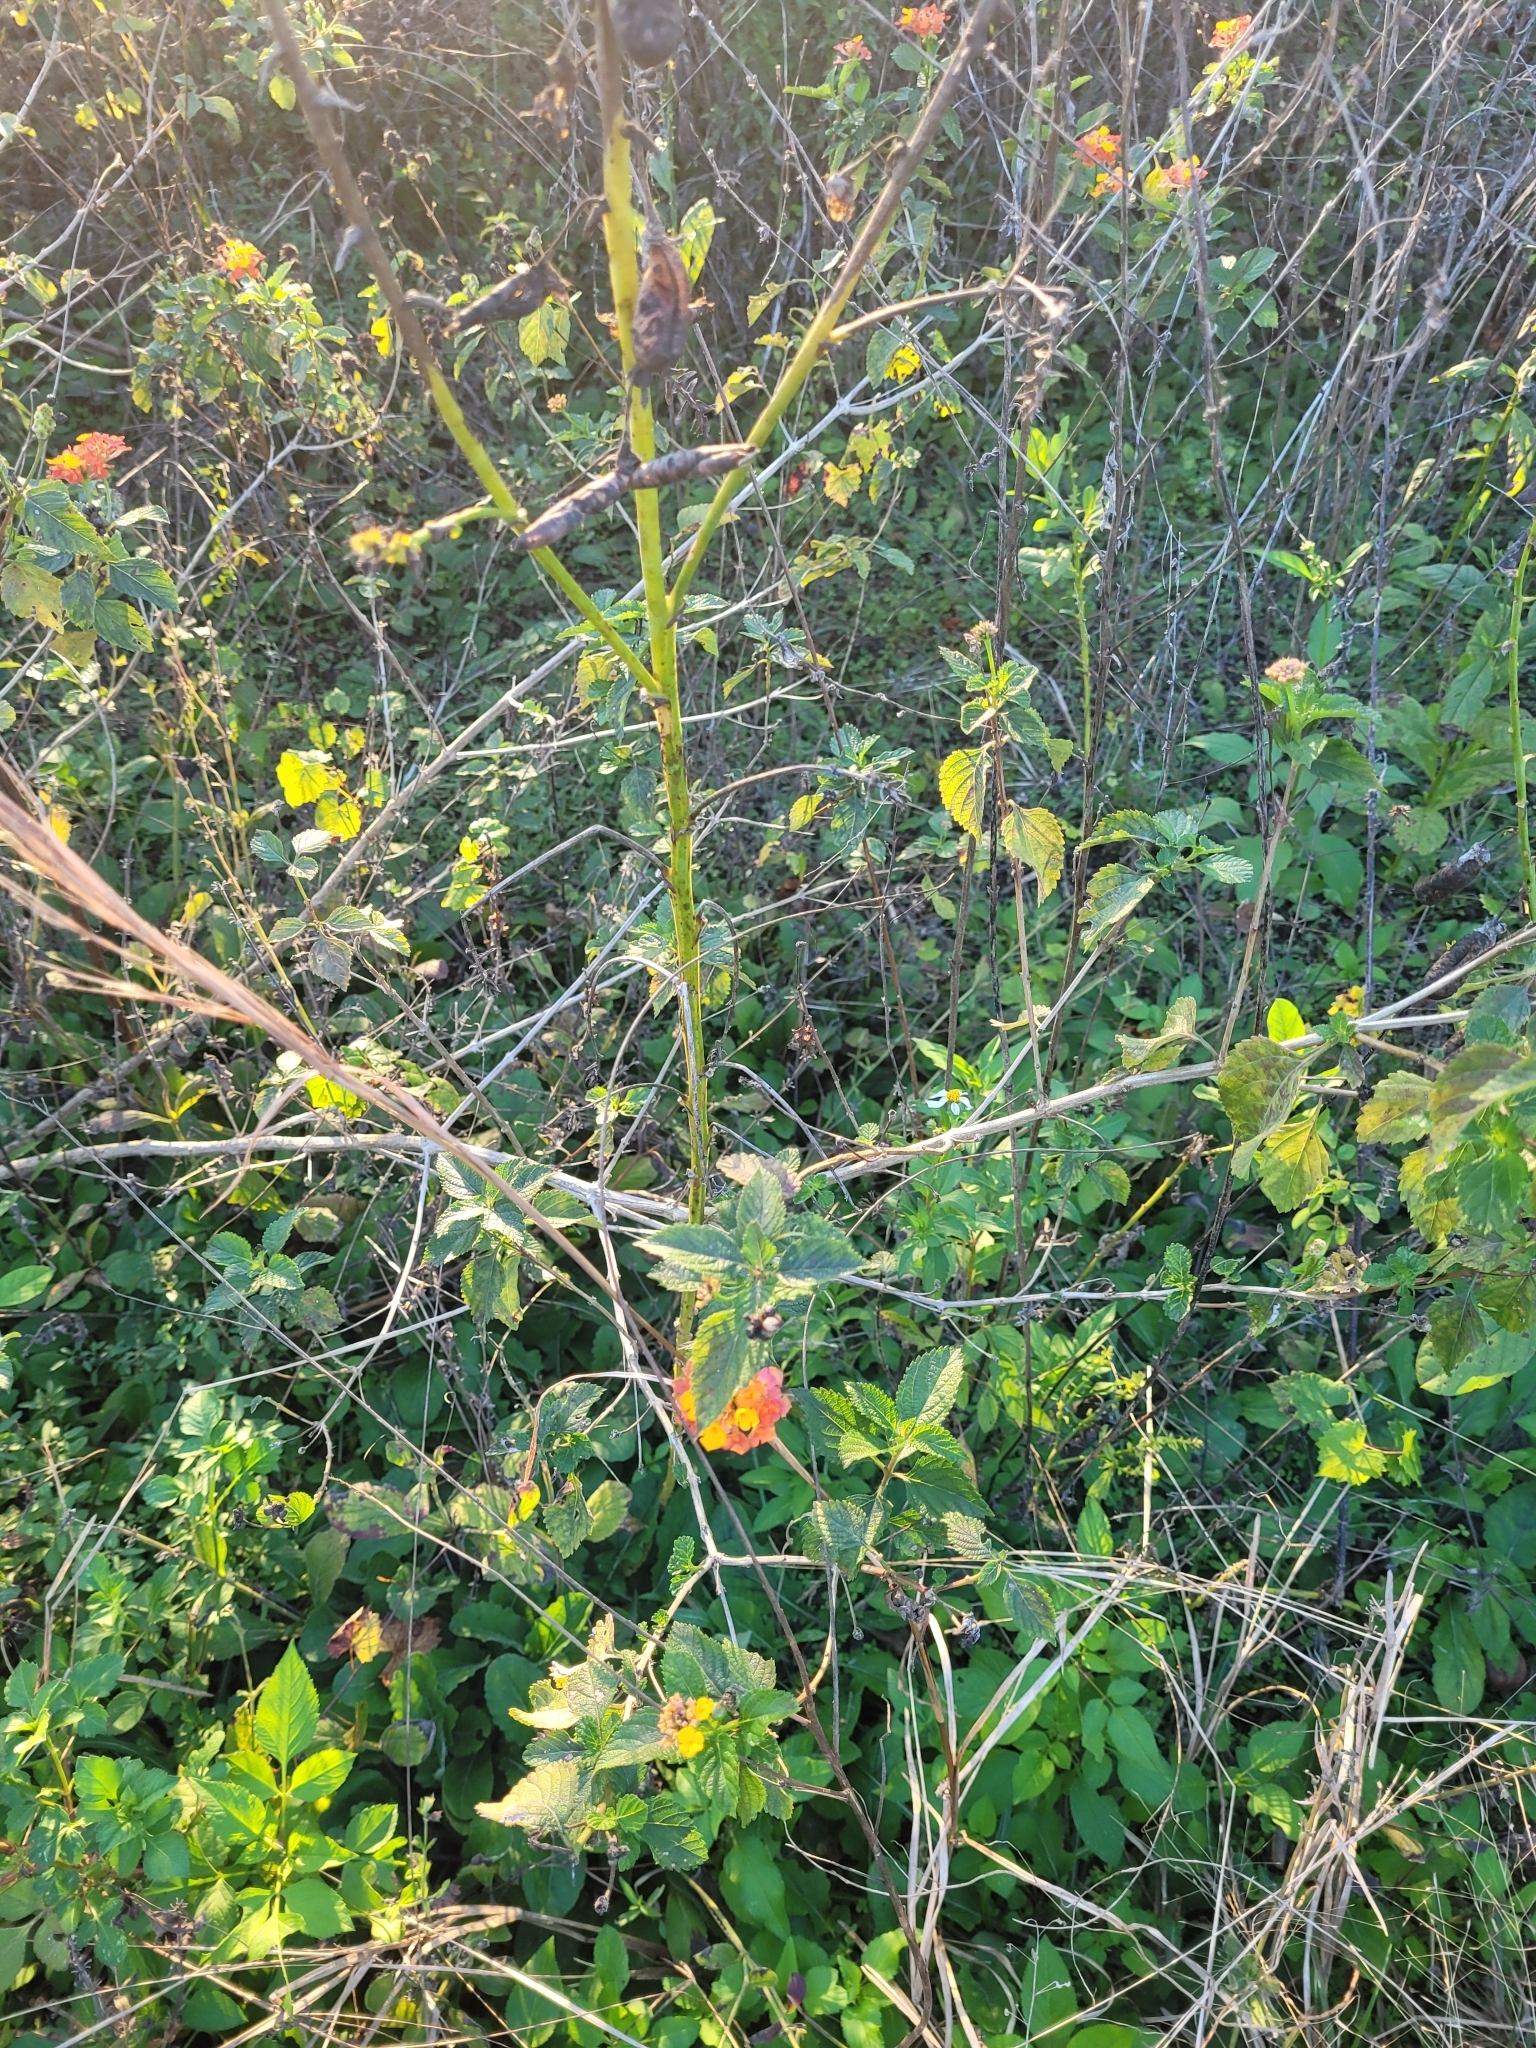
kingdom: Plantae
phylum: Tracheophyta
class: Magnoliopsida
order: Lamiales
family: Verbenaceae
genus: Lantana
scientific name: Lantana camara
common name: Lantana
